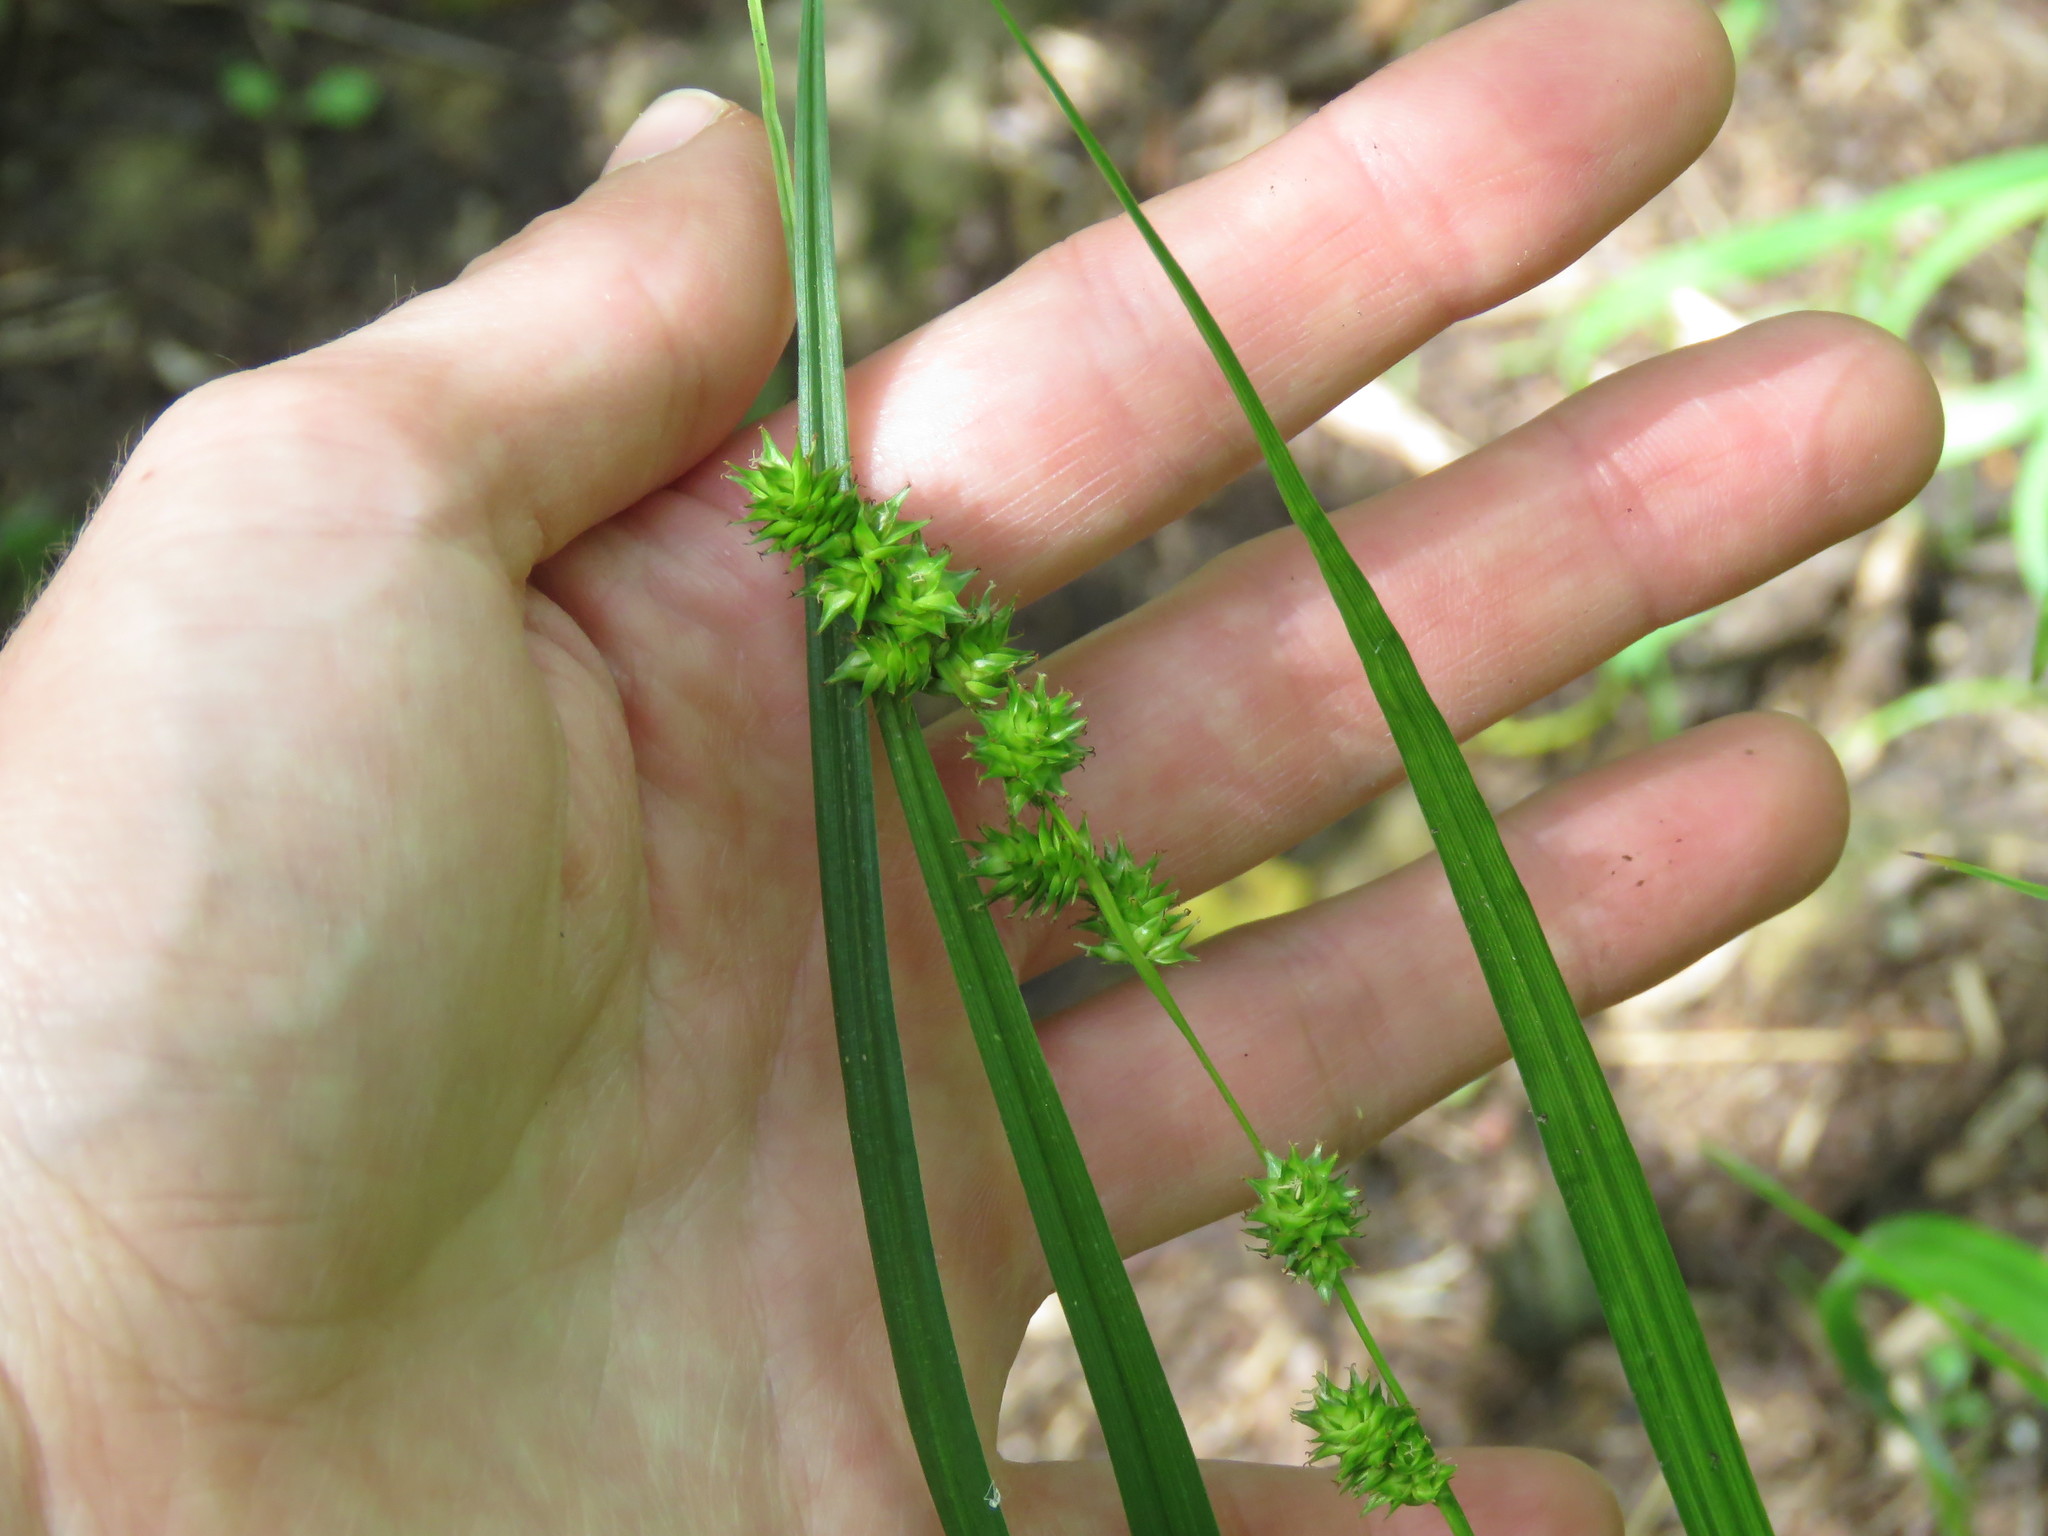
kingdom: Plantae
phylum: Tracheophyta
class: Liliopsida
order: Poales
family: Cyperaceae
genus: Carex
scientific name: Carex sparganioides
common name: Burreed sedge
